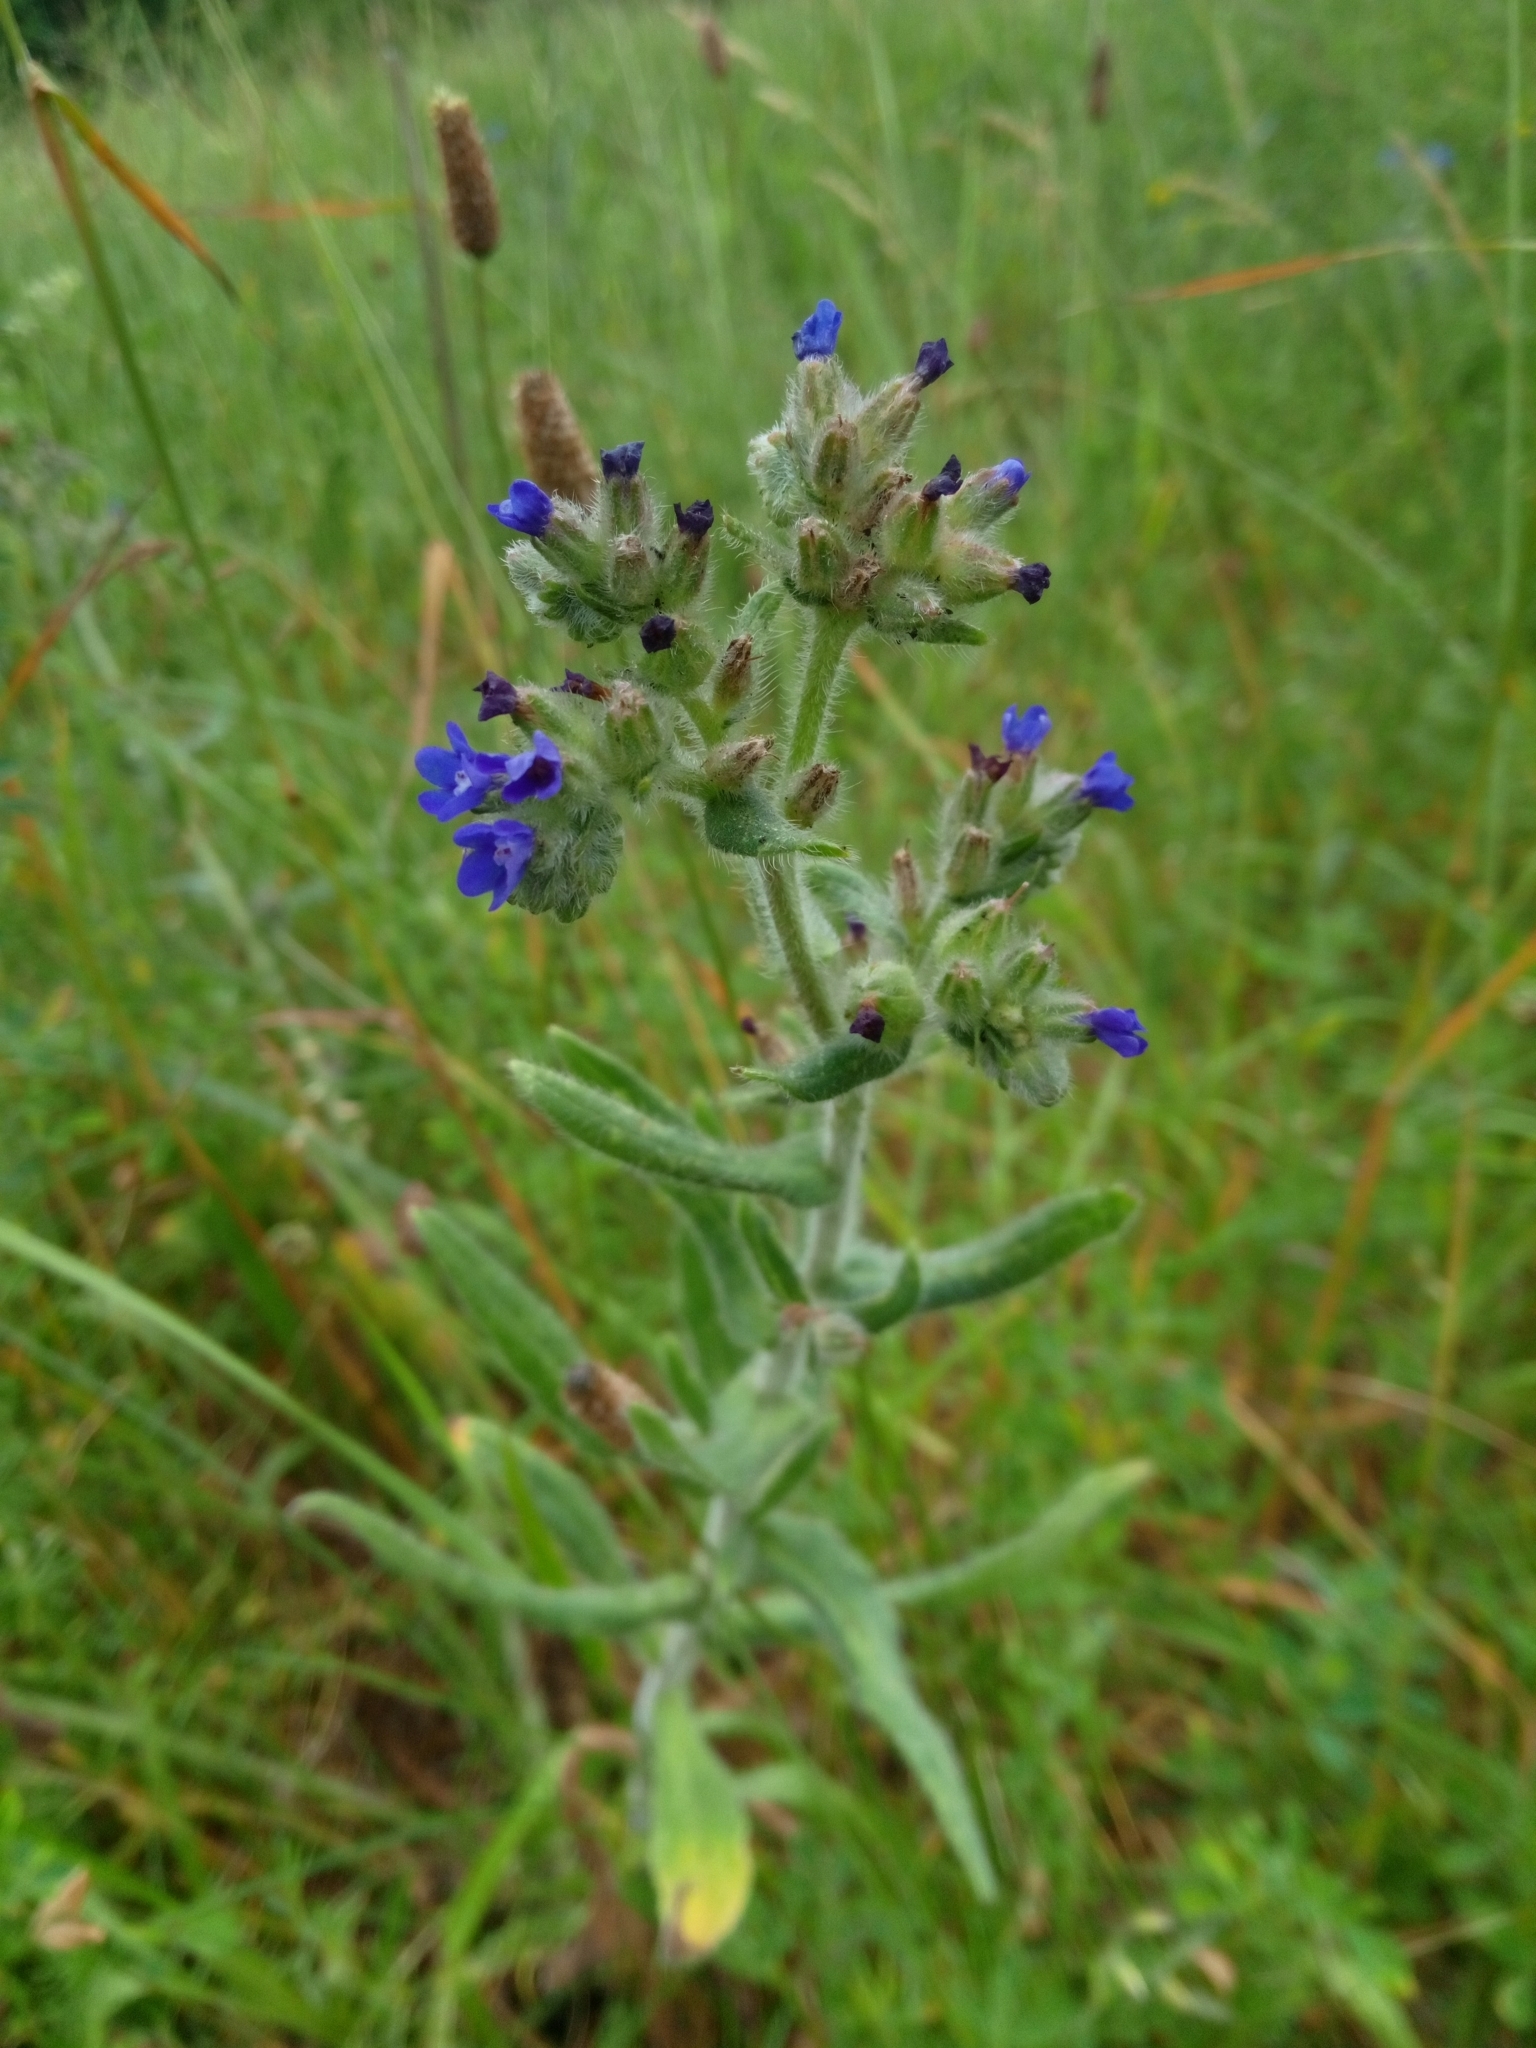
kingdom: Plantae
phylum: Tracheophyta
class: Magnoliopsida
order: Boraginales
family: Boraginaceae
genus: Anchusa
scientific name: Anchusa officinalis
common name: Alkanet
